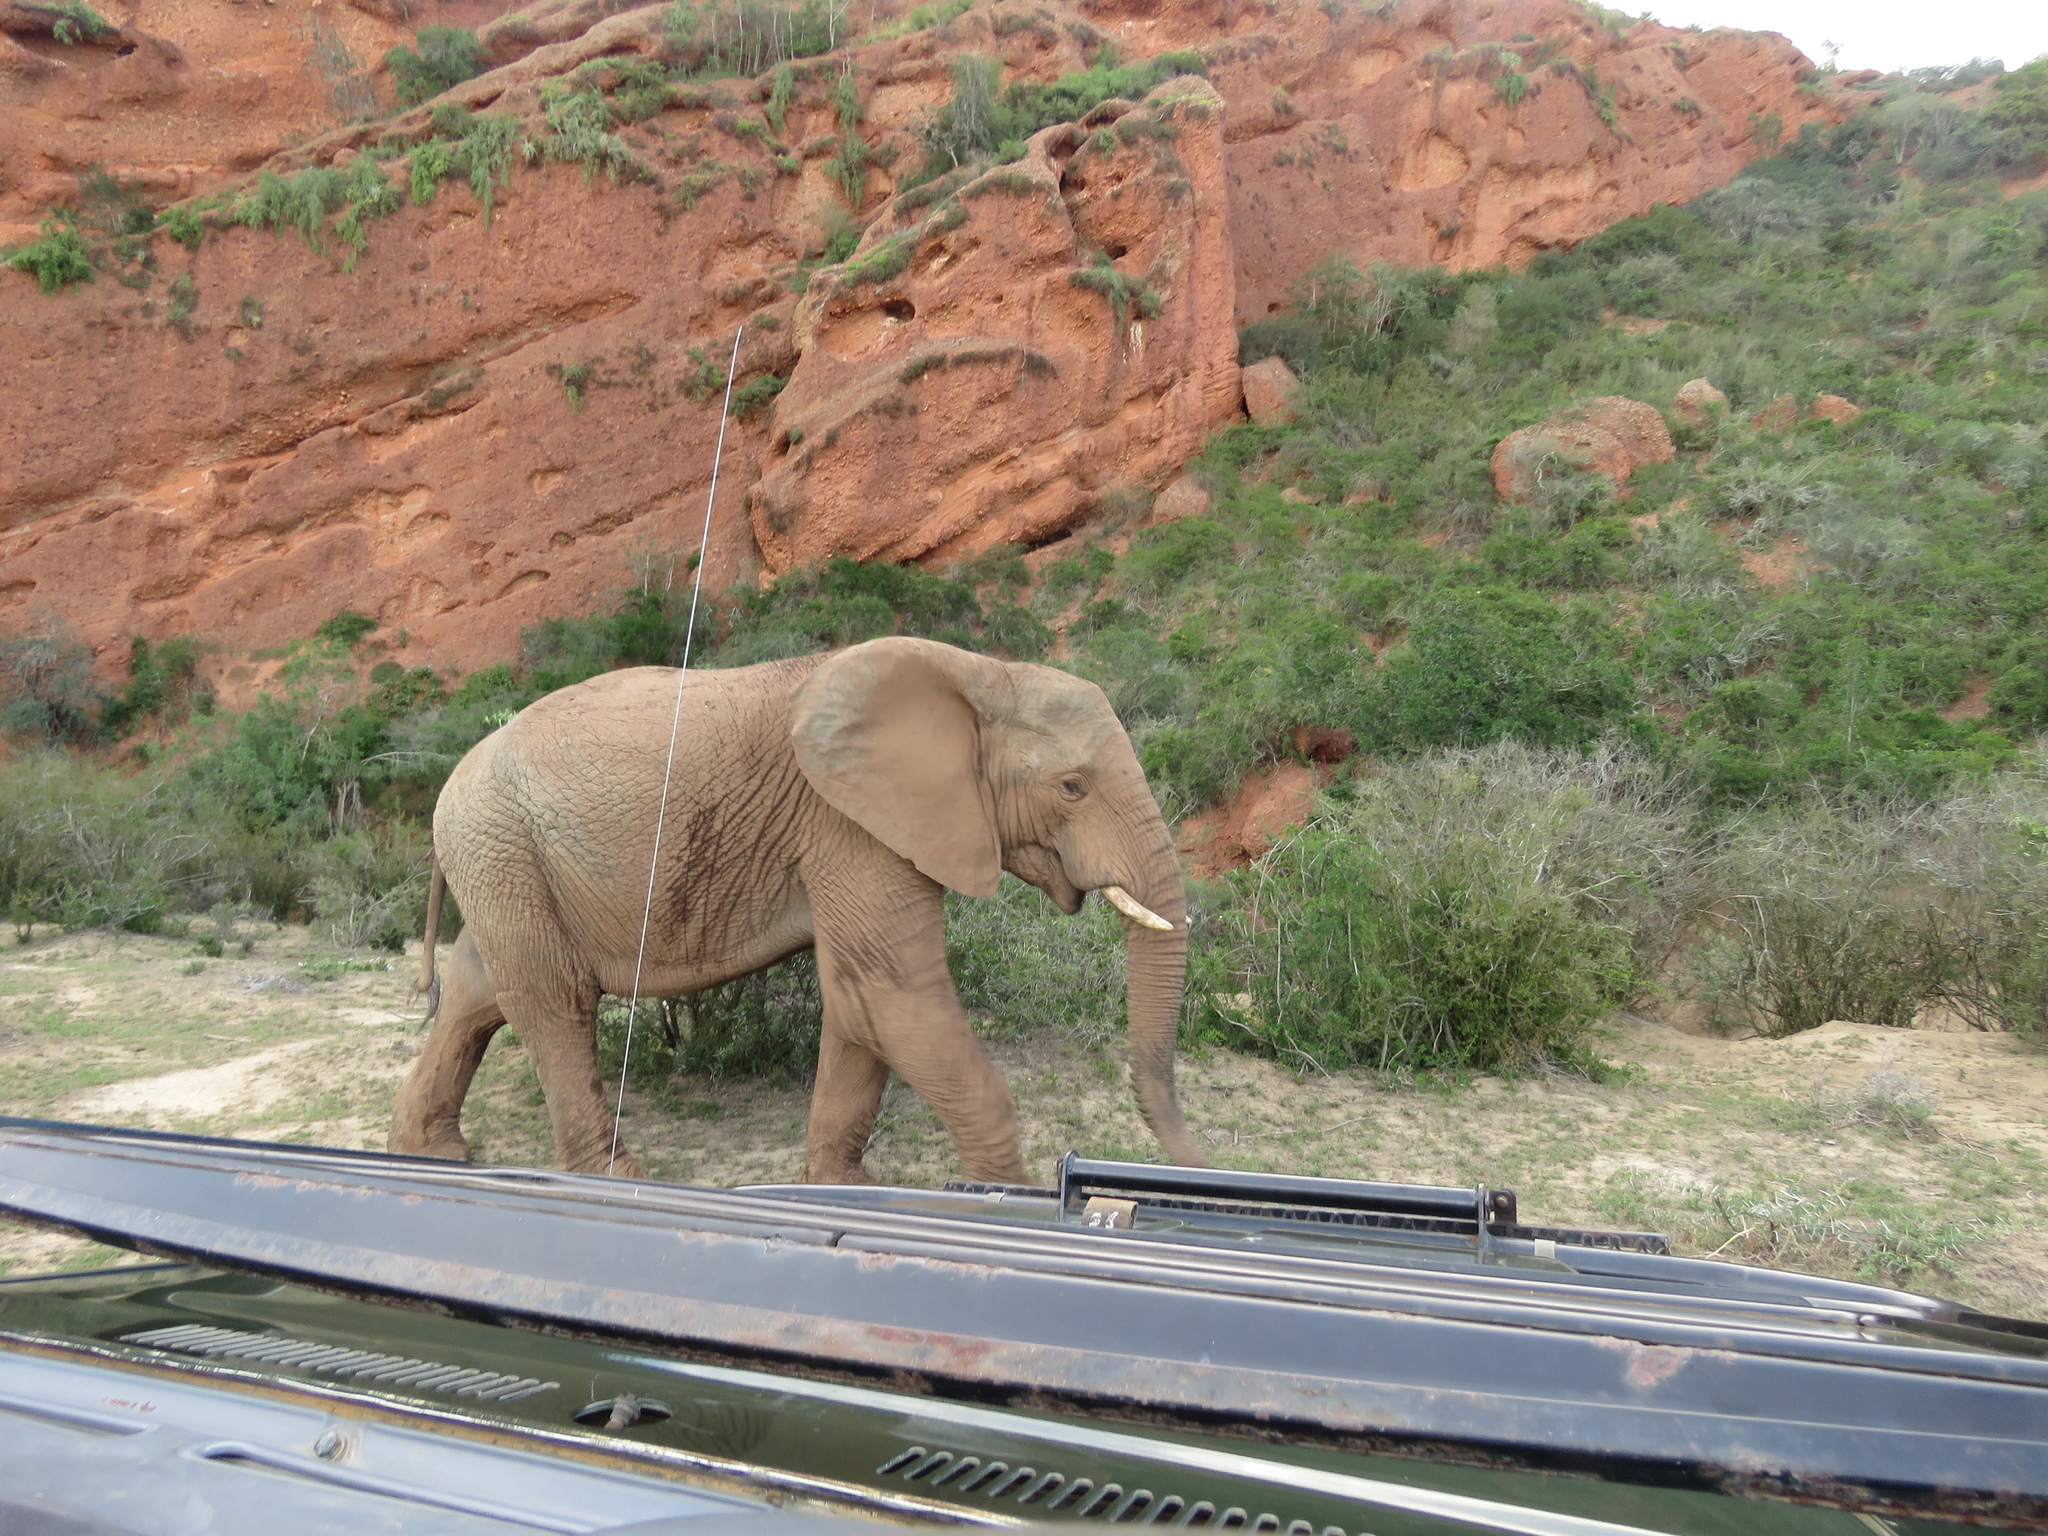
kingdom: Animalia
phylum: Chordata
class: Mammalia
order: Proboscidea
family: Elephantidae
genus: Loxodonta
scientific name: Loxodonta africana
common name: African elephant
